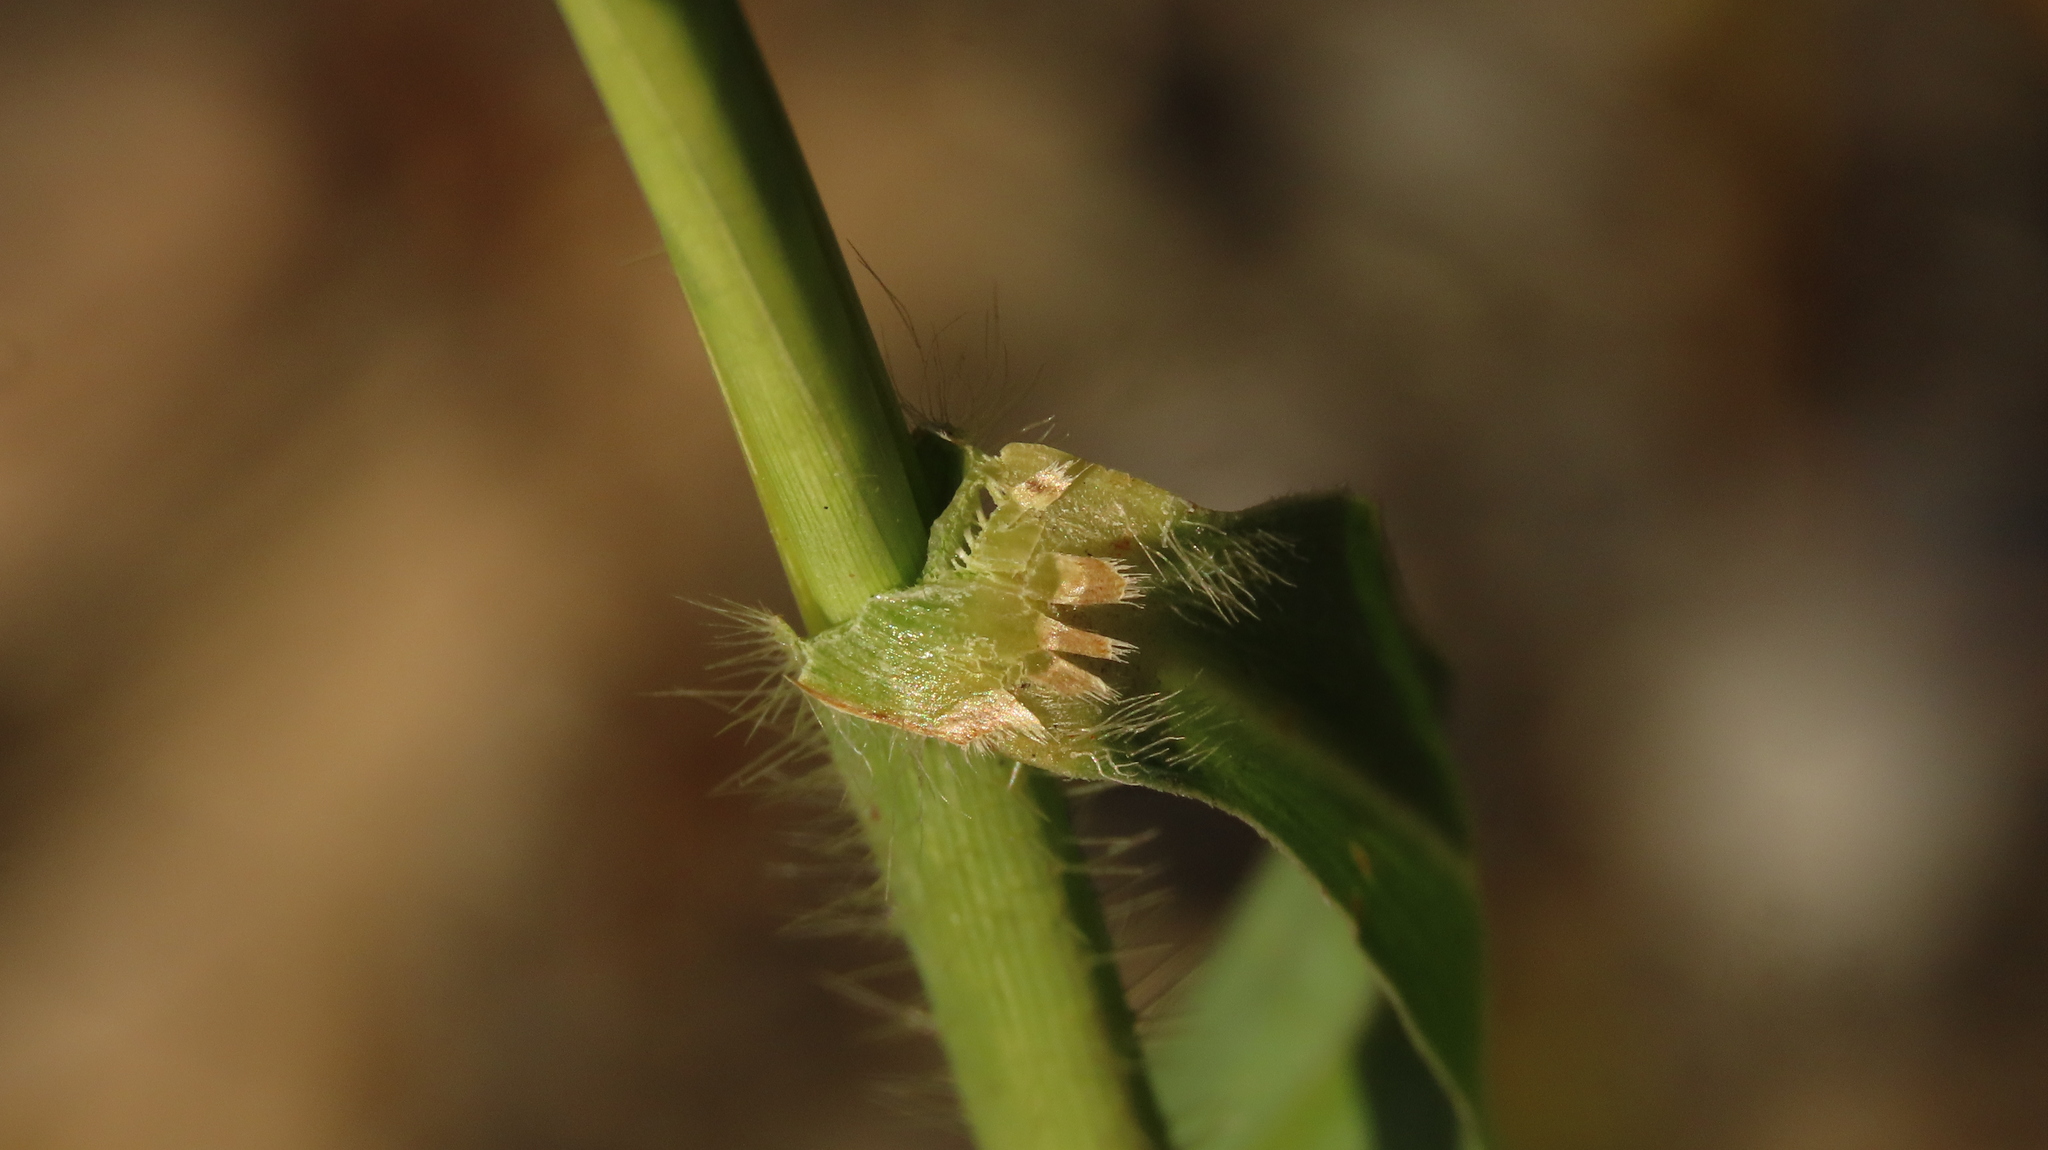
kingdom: Plantae
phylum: Tracheophyta
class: Liliopsida
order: Poales
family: Poaceae
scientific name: Poaceae
